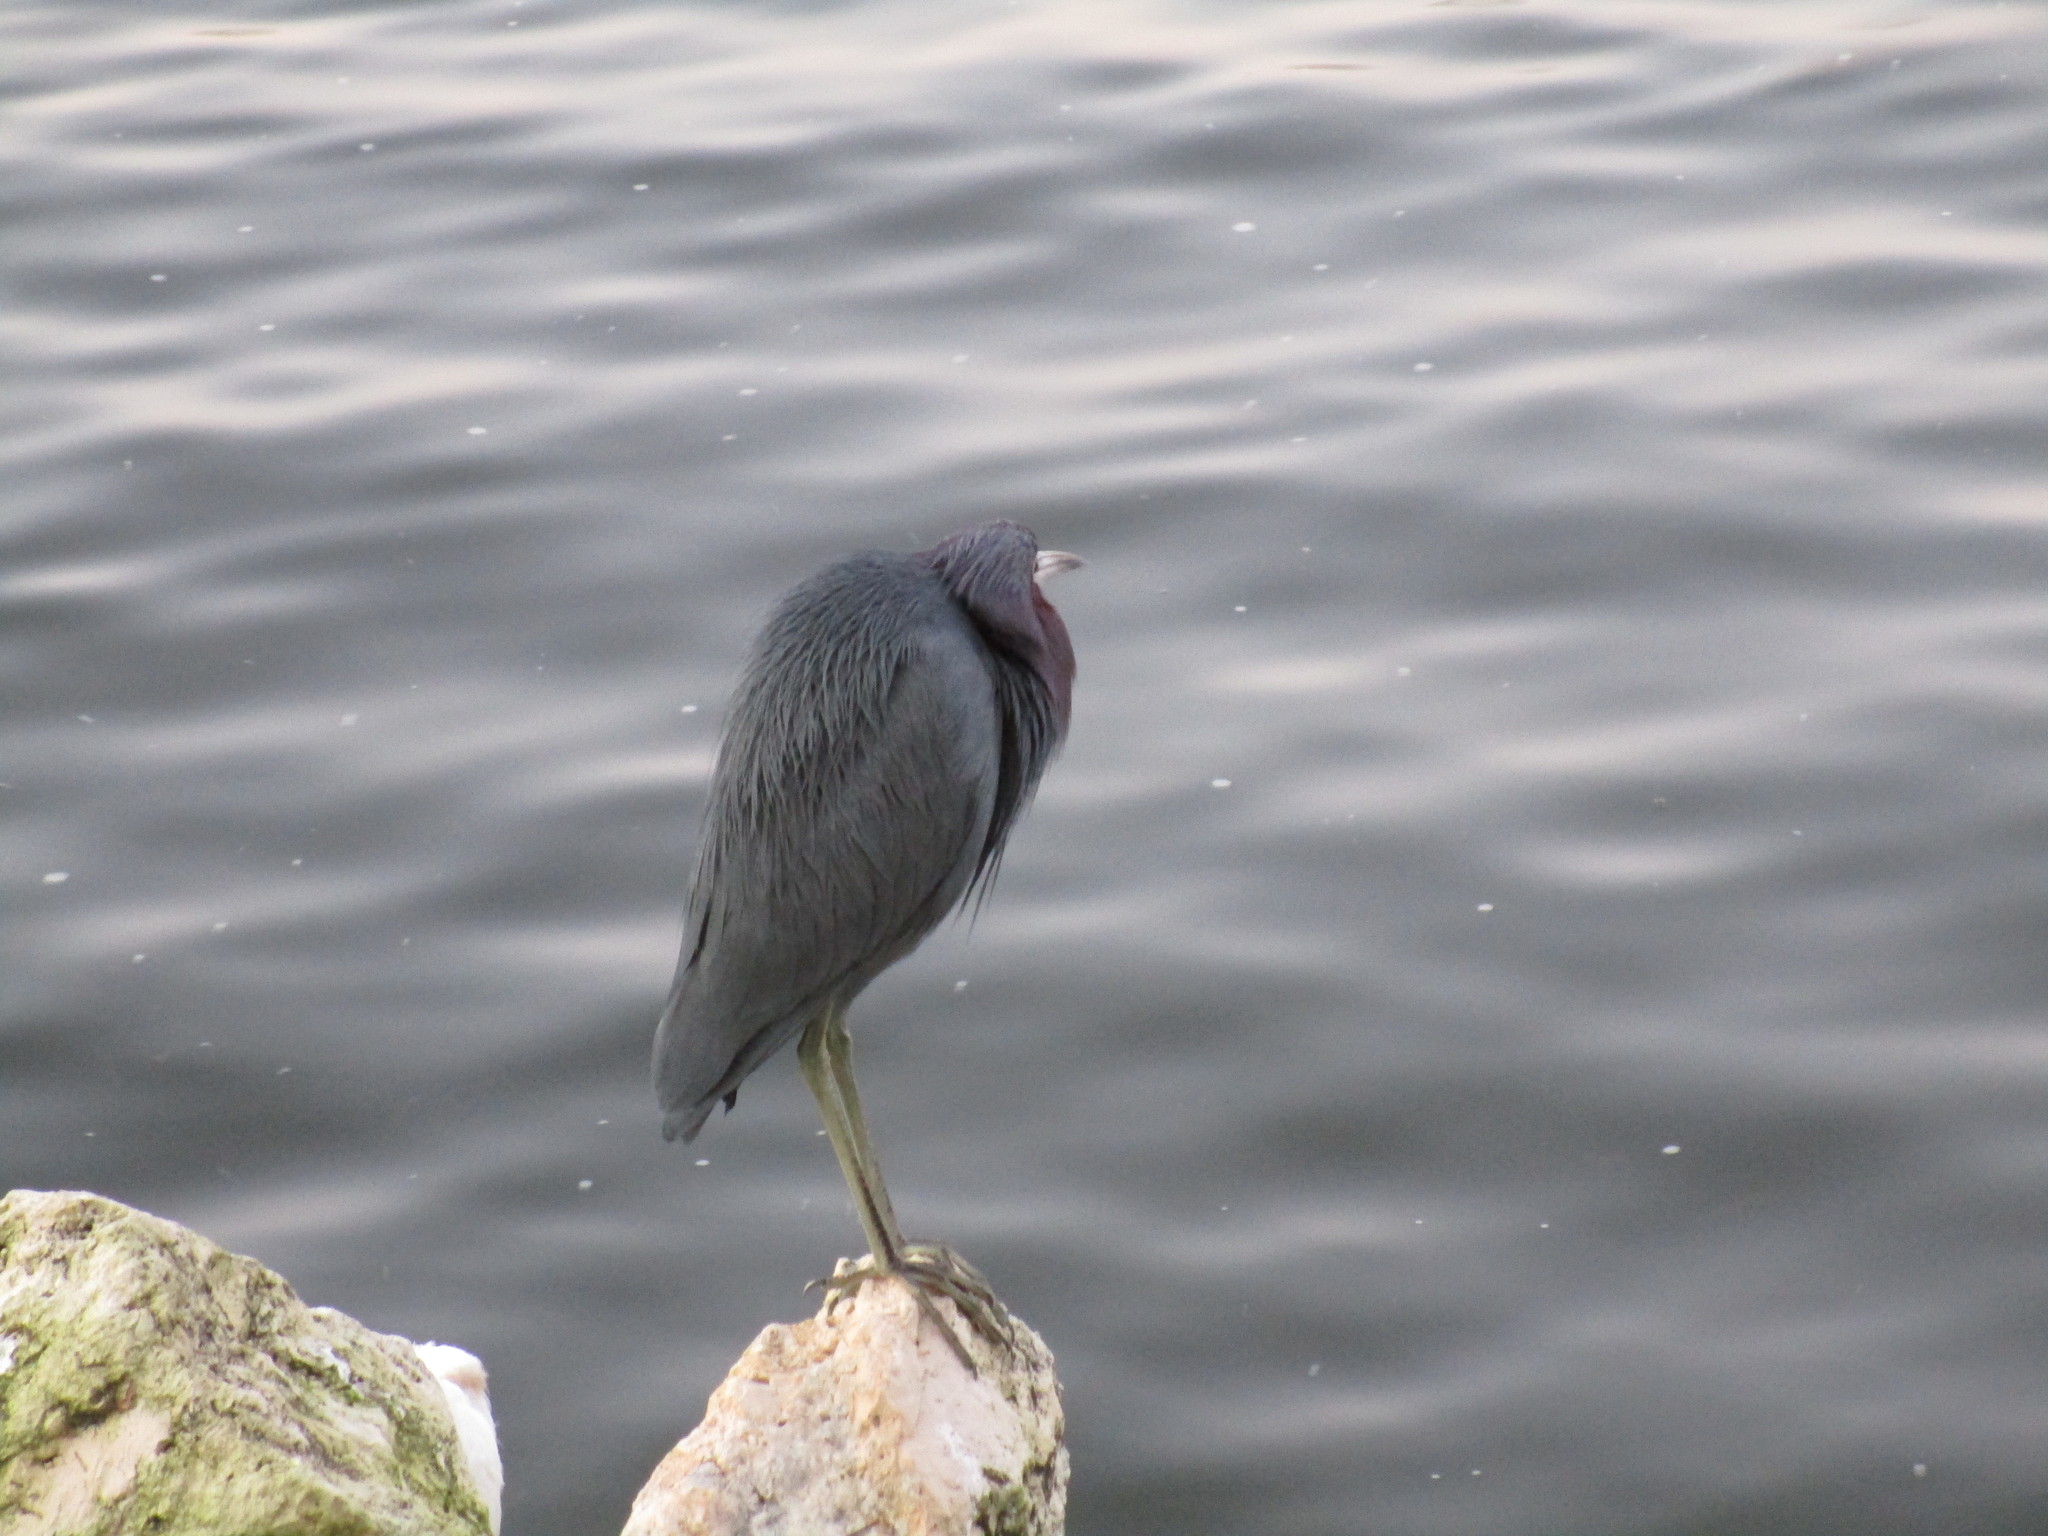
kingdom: Animalia
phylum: Chordata
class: Aves
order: Pelecaniformes
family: Ardeidae
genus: Egretta
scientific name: Egretta caerulea
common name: Little blue heron
